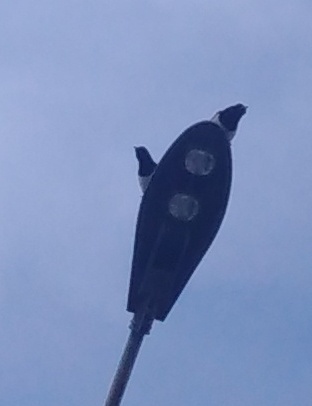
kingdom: Animalia
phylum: Chordata
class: Aves
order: Passeriformes
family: Corvidae
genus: Pica
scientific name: Pica pica
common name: Eurasian magpie
